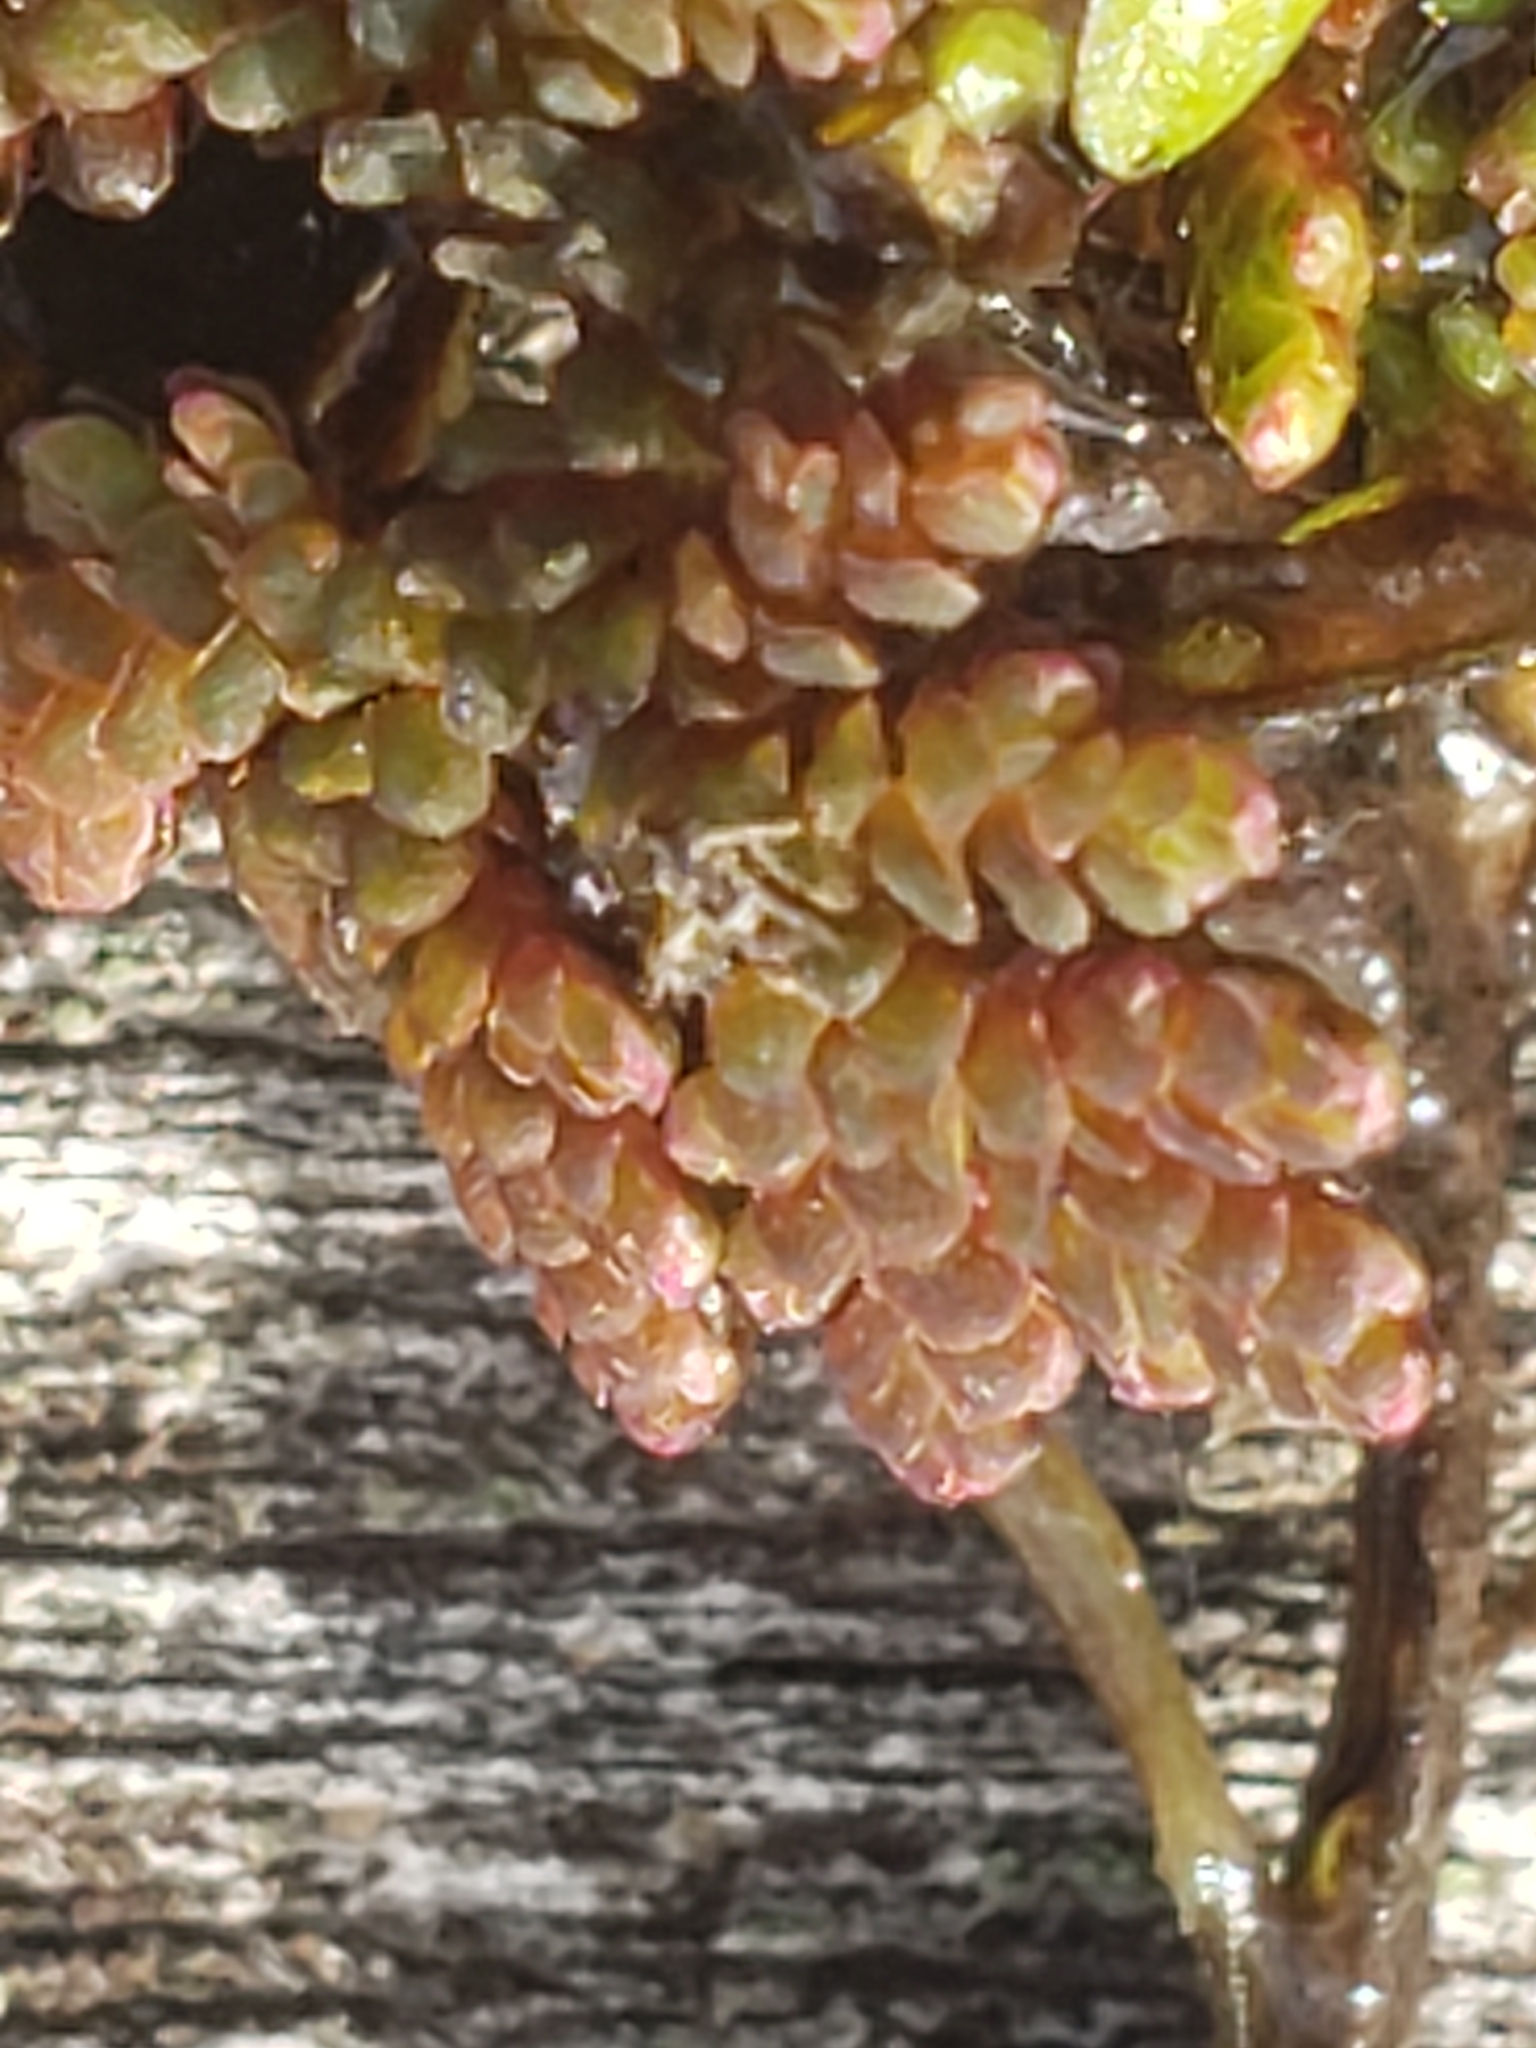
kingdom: Plantae
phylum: Tracheophyta
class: Polypodiopsida
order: Salviniales
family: Salviniaceae
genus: Azolla
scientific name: Azolla
